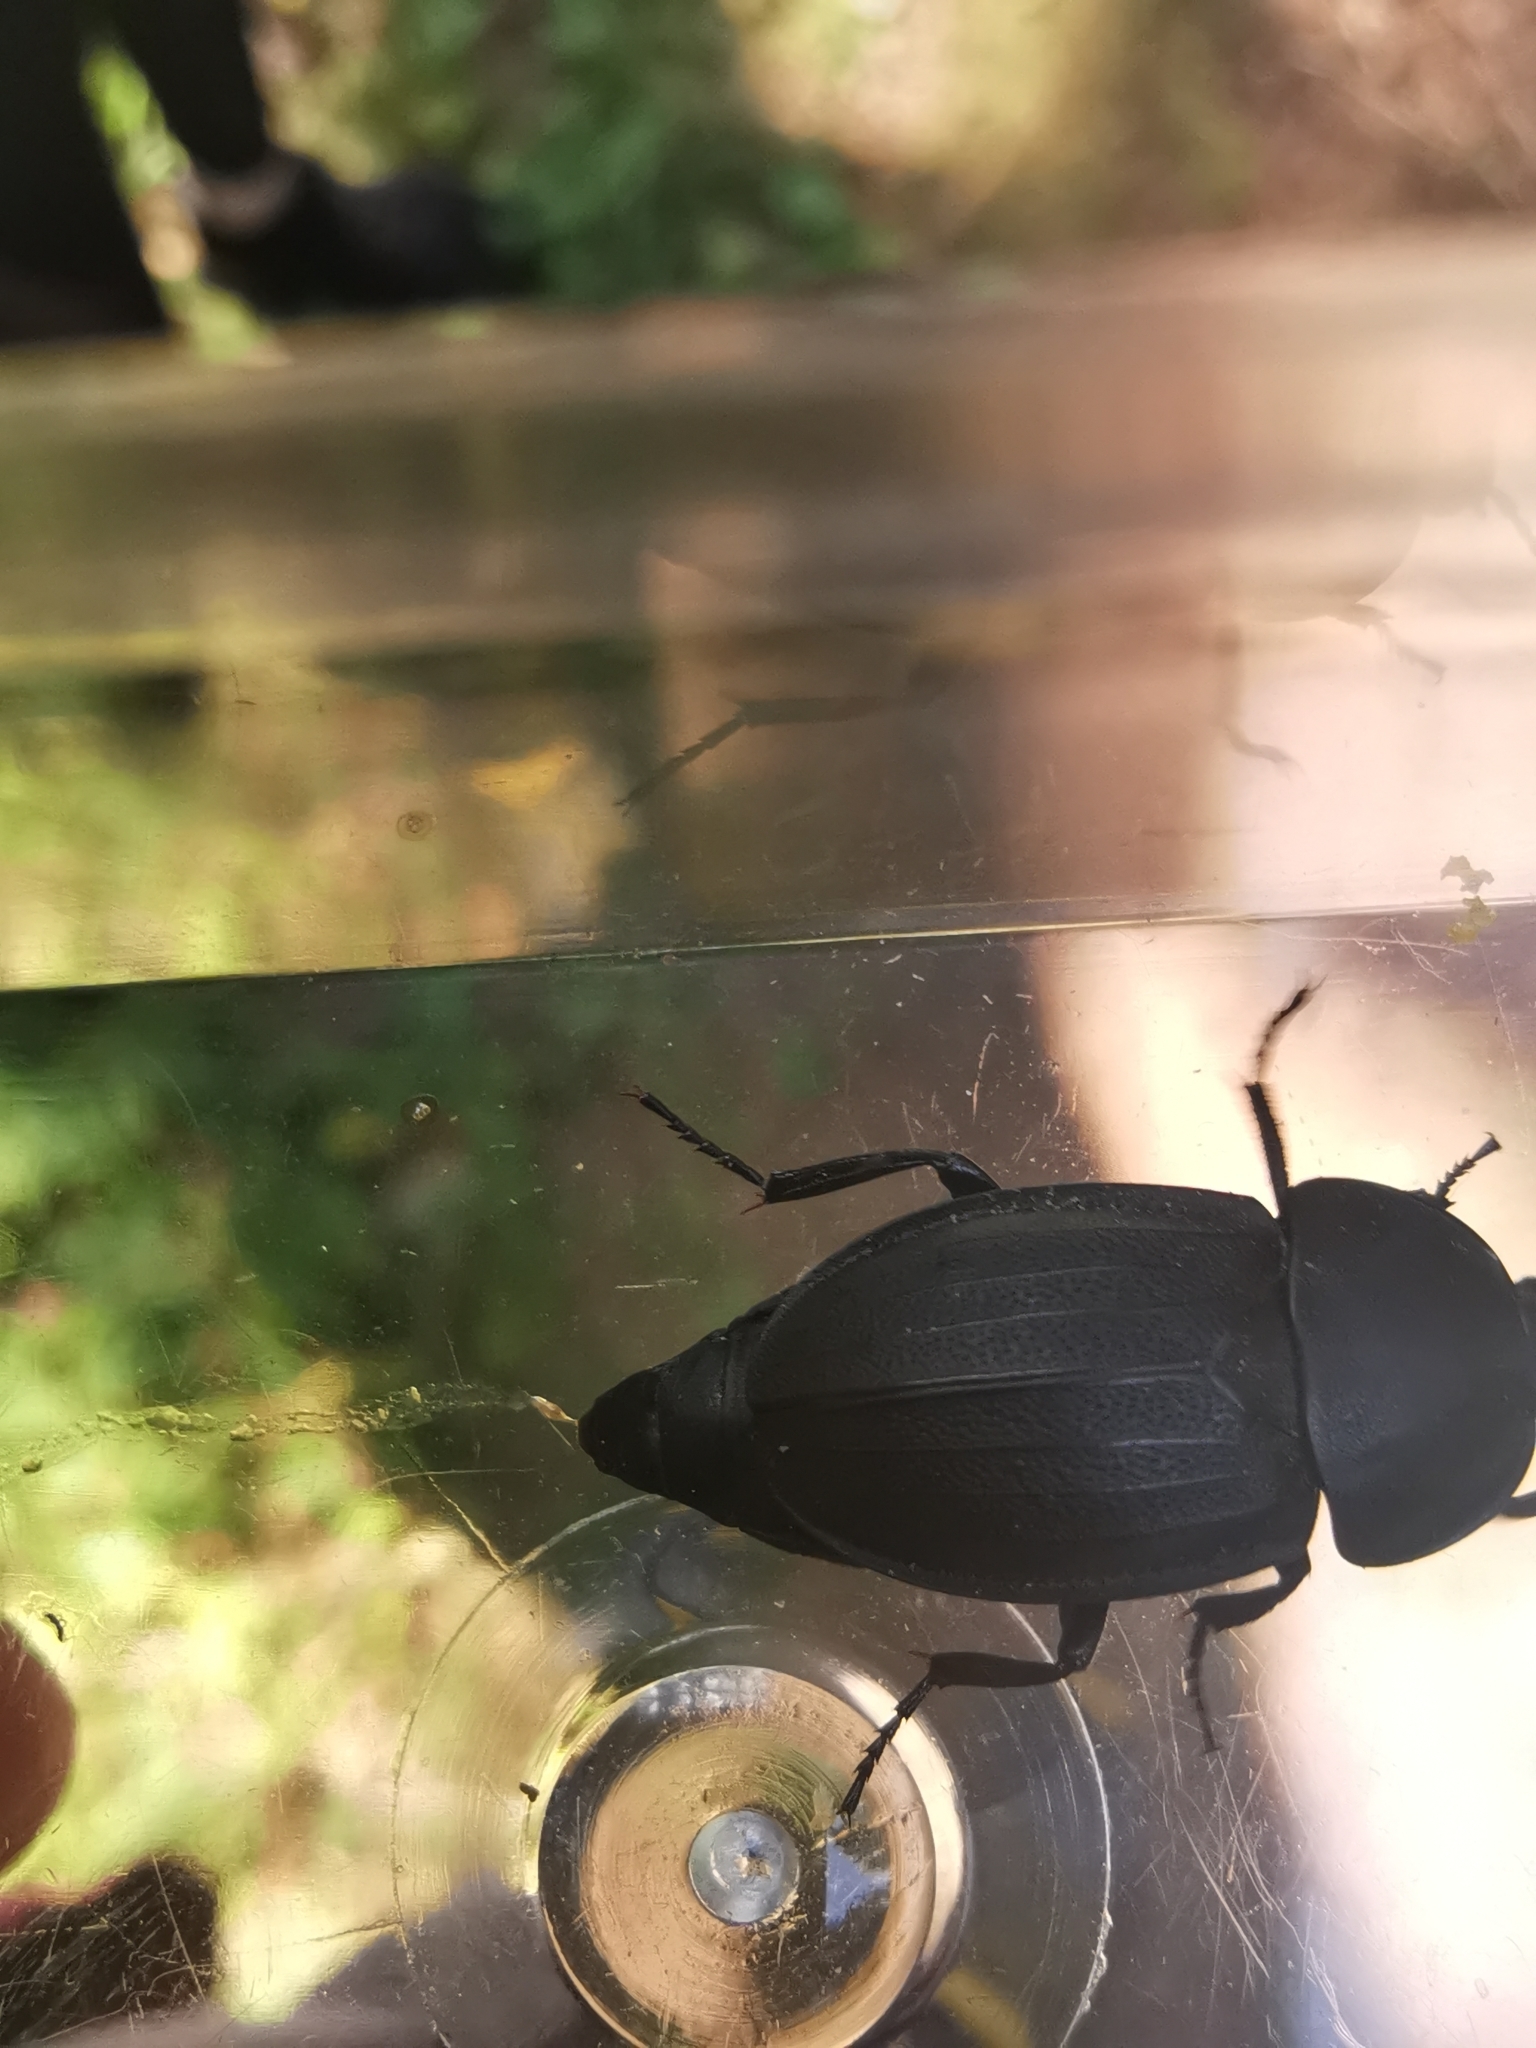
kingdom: Animalia
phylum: Arthropoda
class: Insecta
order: Coleoptera
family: Staphylinidae
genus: Silpha
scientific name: Silpha obscura
